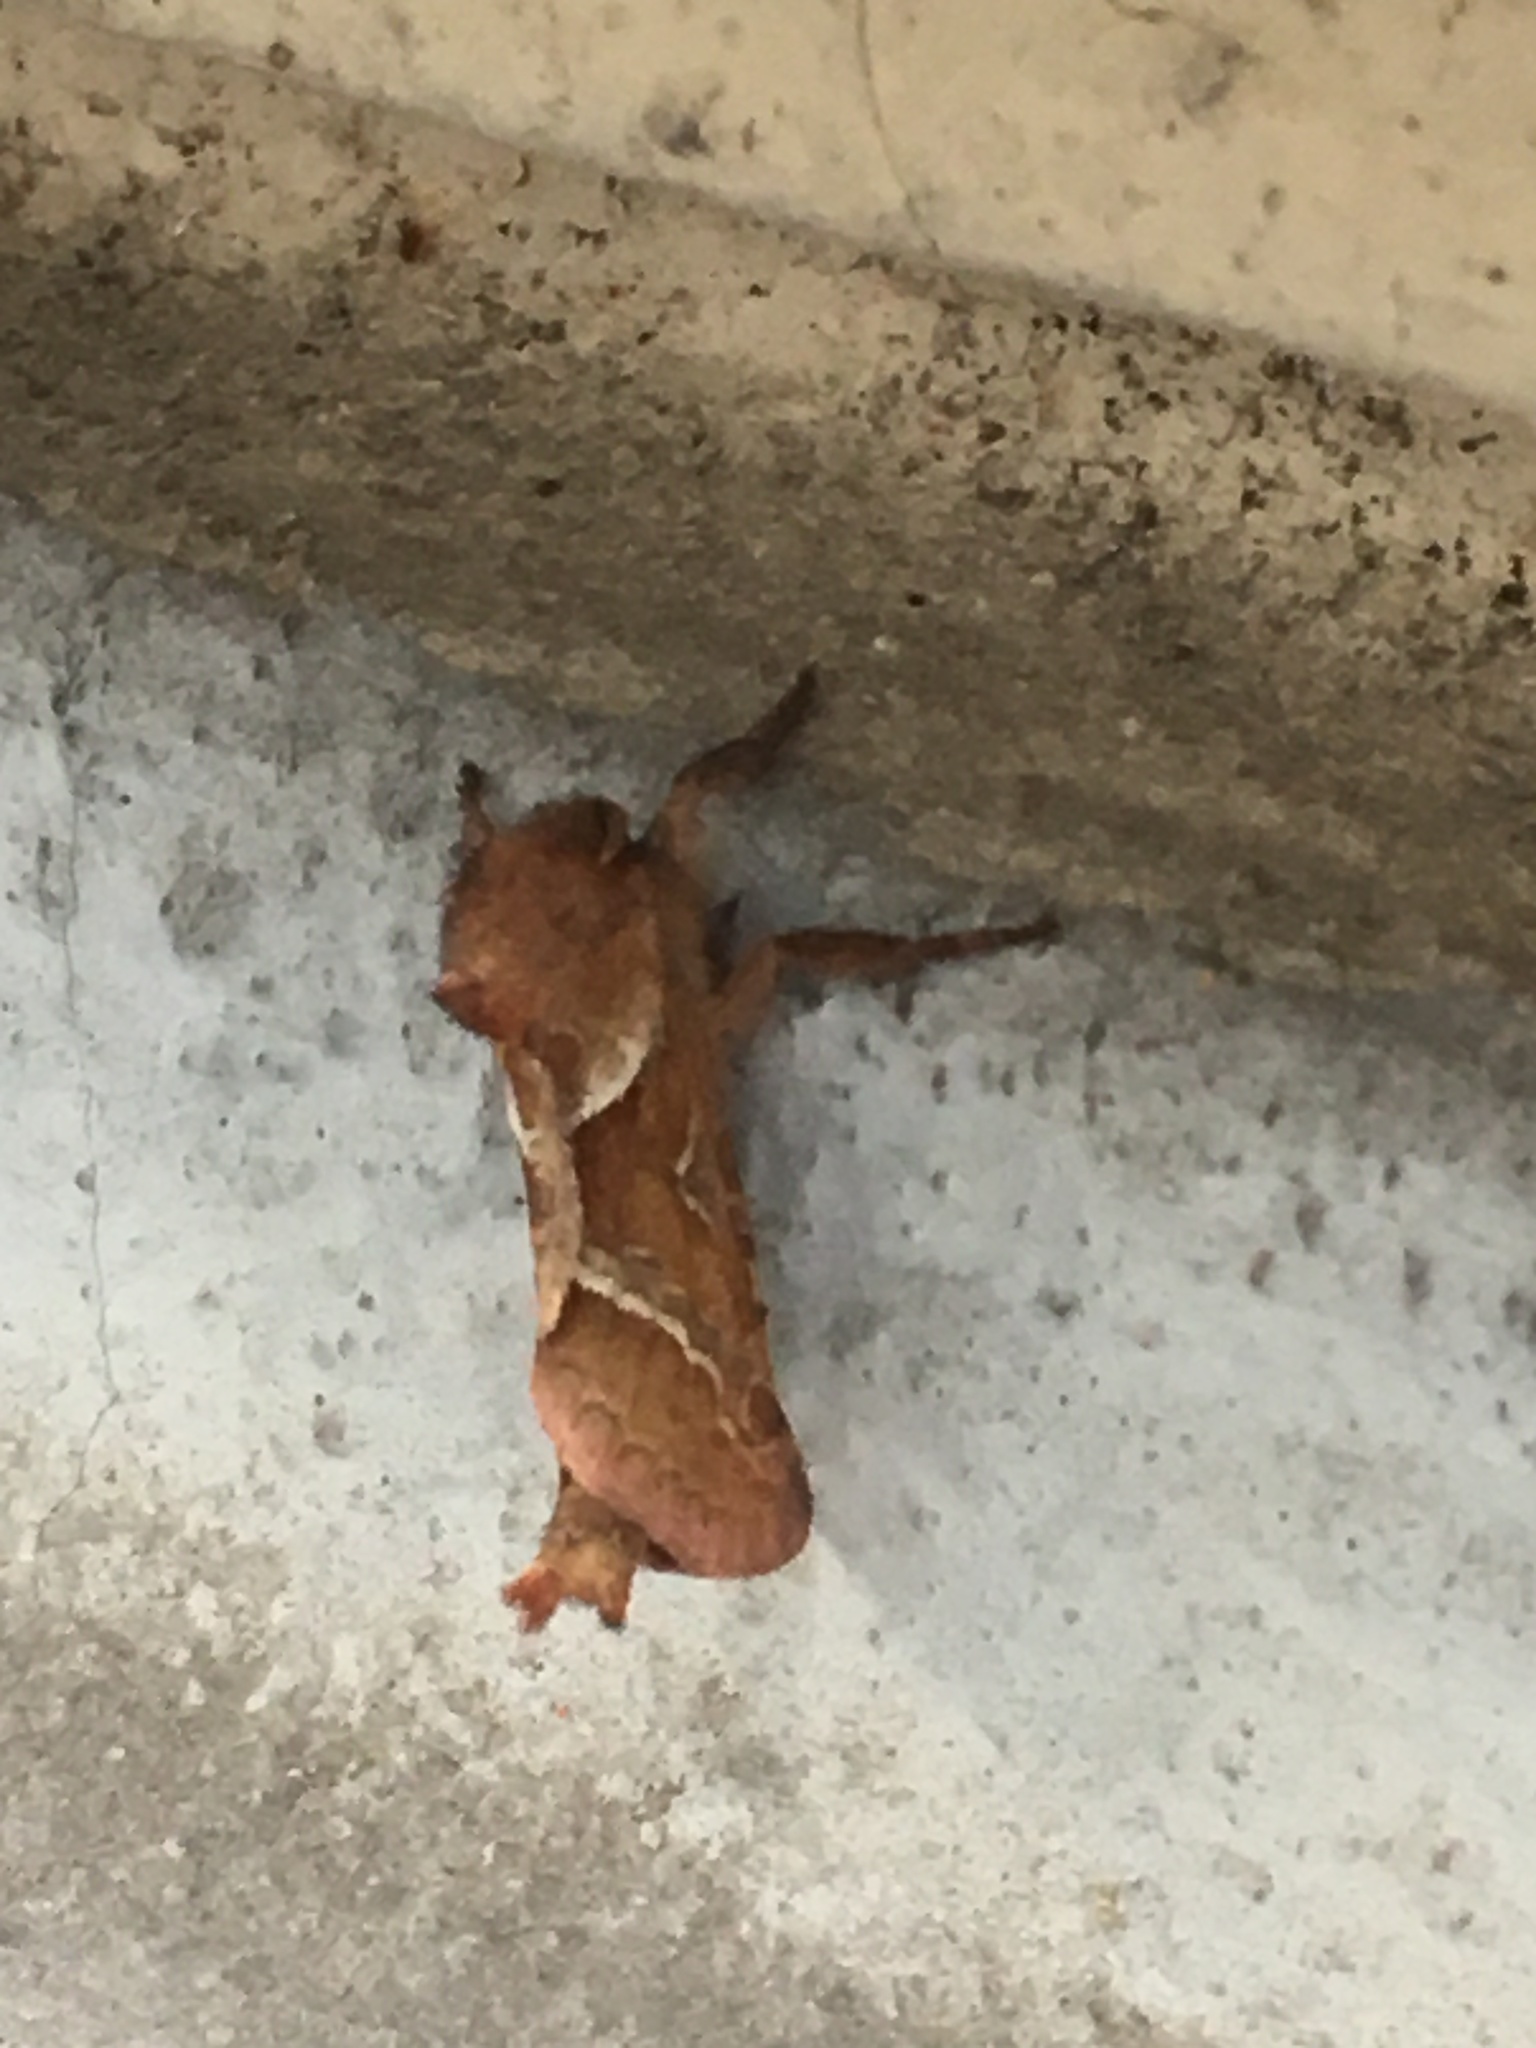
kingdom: Animalia
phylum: Arthropoda
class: Insecta
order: Lepidoptera
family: Hepialidae
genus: Triodia
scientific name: Triodia sylvina
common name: Orange swift
